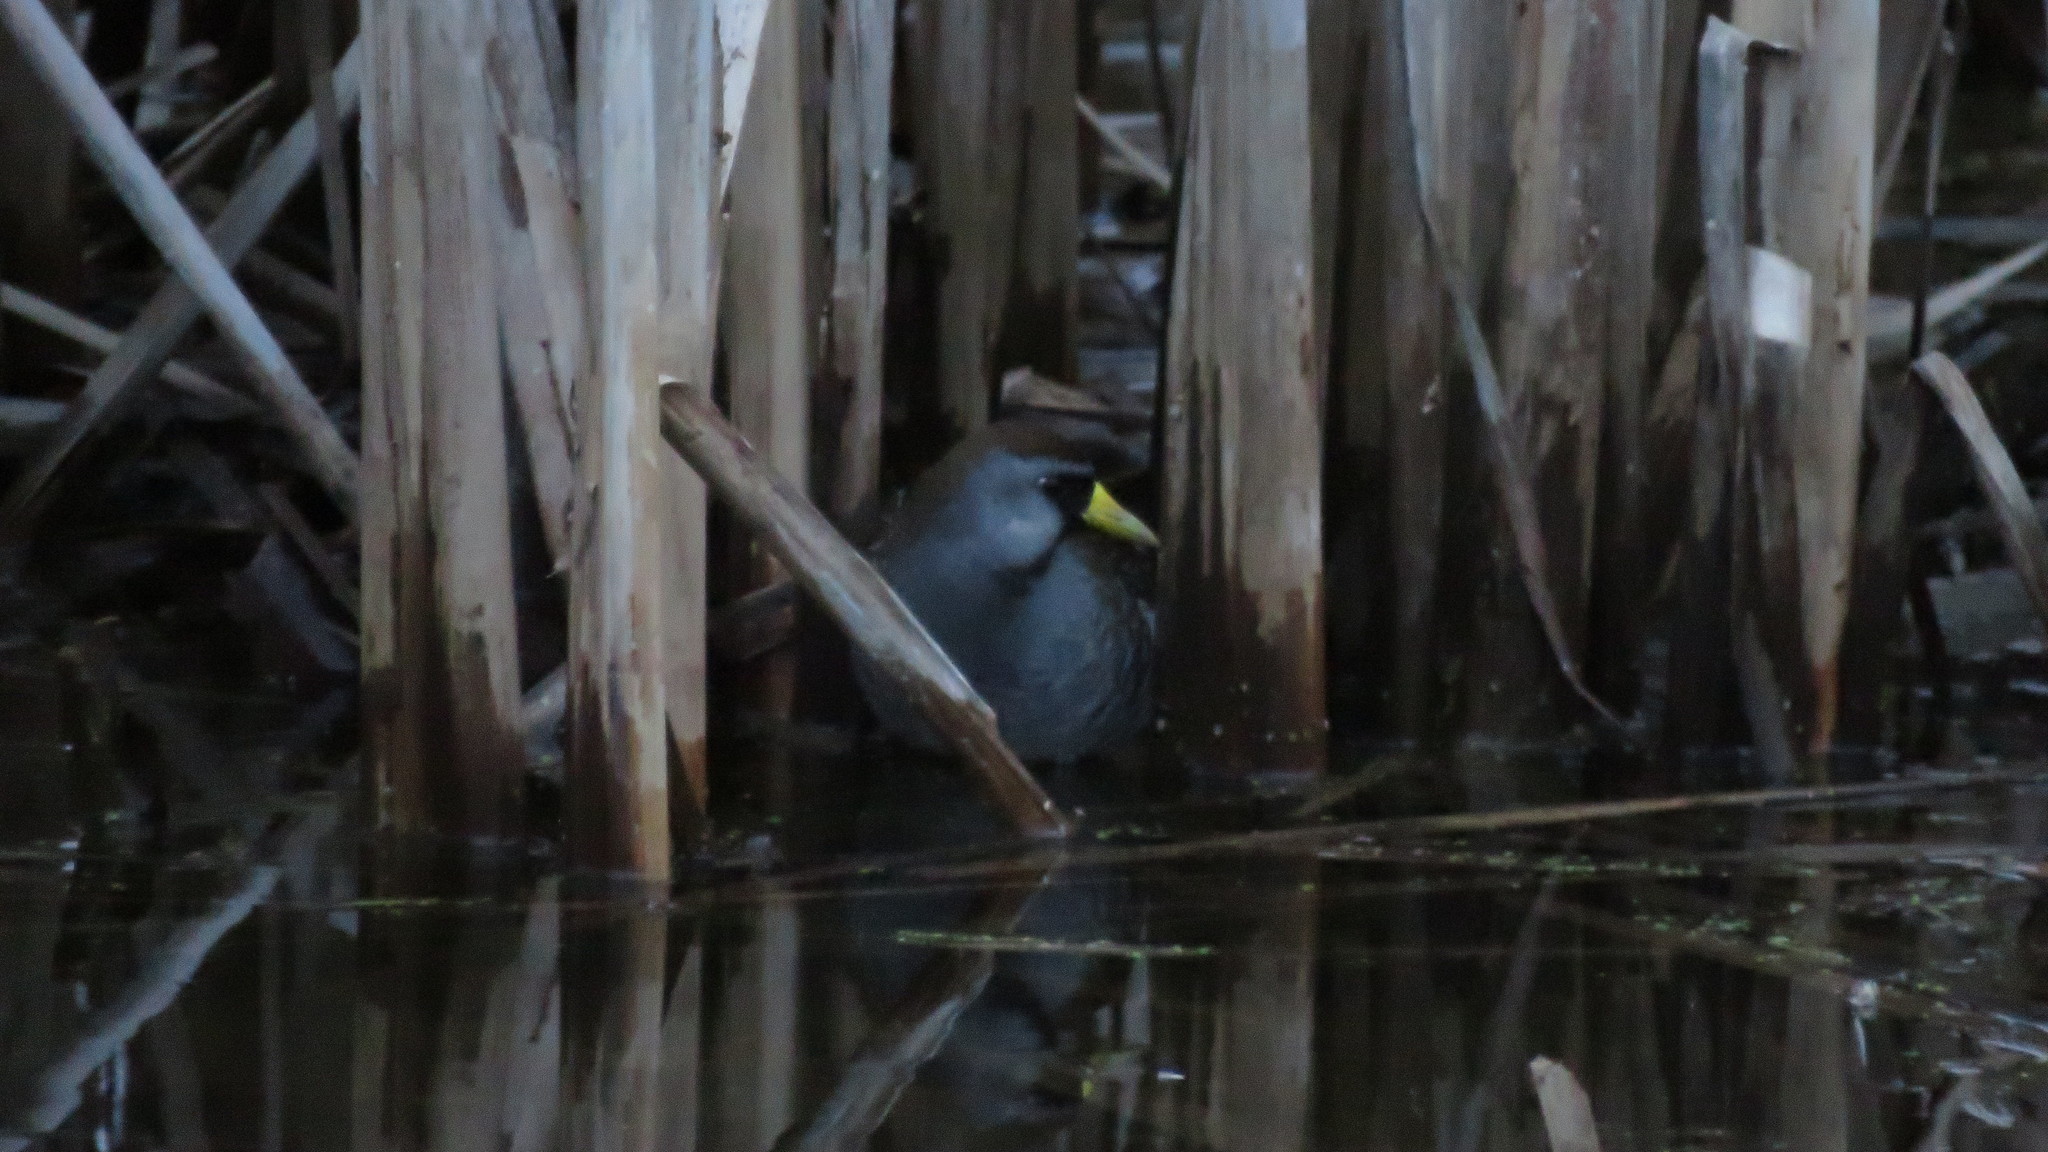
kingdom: Animalia
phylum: Chordata
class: Aves
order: Gruiformes
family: Rallidae
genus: Porzana
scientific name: Porzana carolina
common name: Sora
